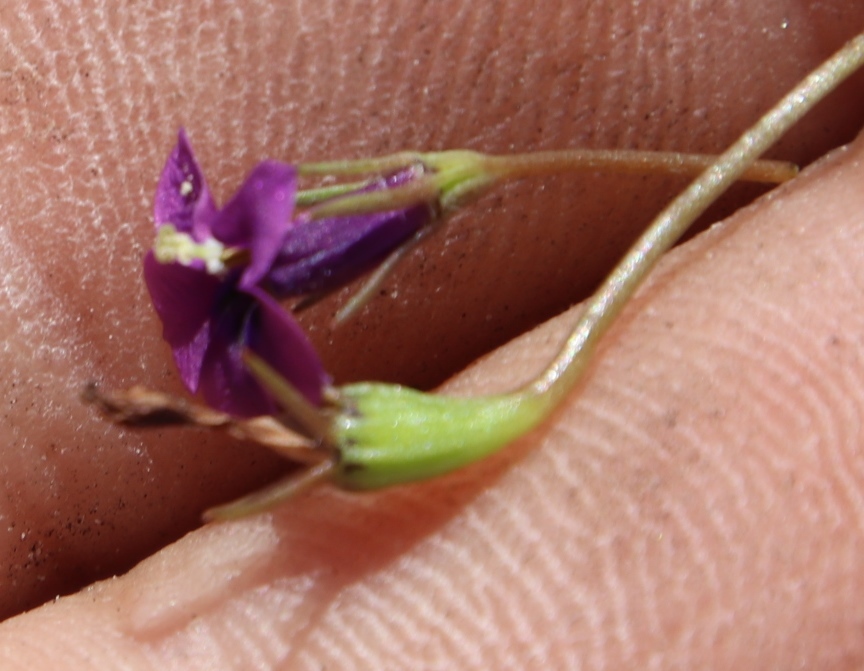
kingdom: Plantae
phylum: Tracheophyta
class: Magnoliopsida
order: Asterales
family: Campanulaceae
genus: Monopsis
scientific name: Monopsis debilis
